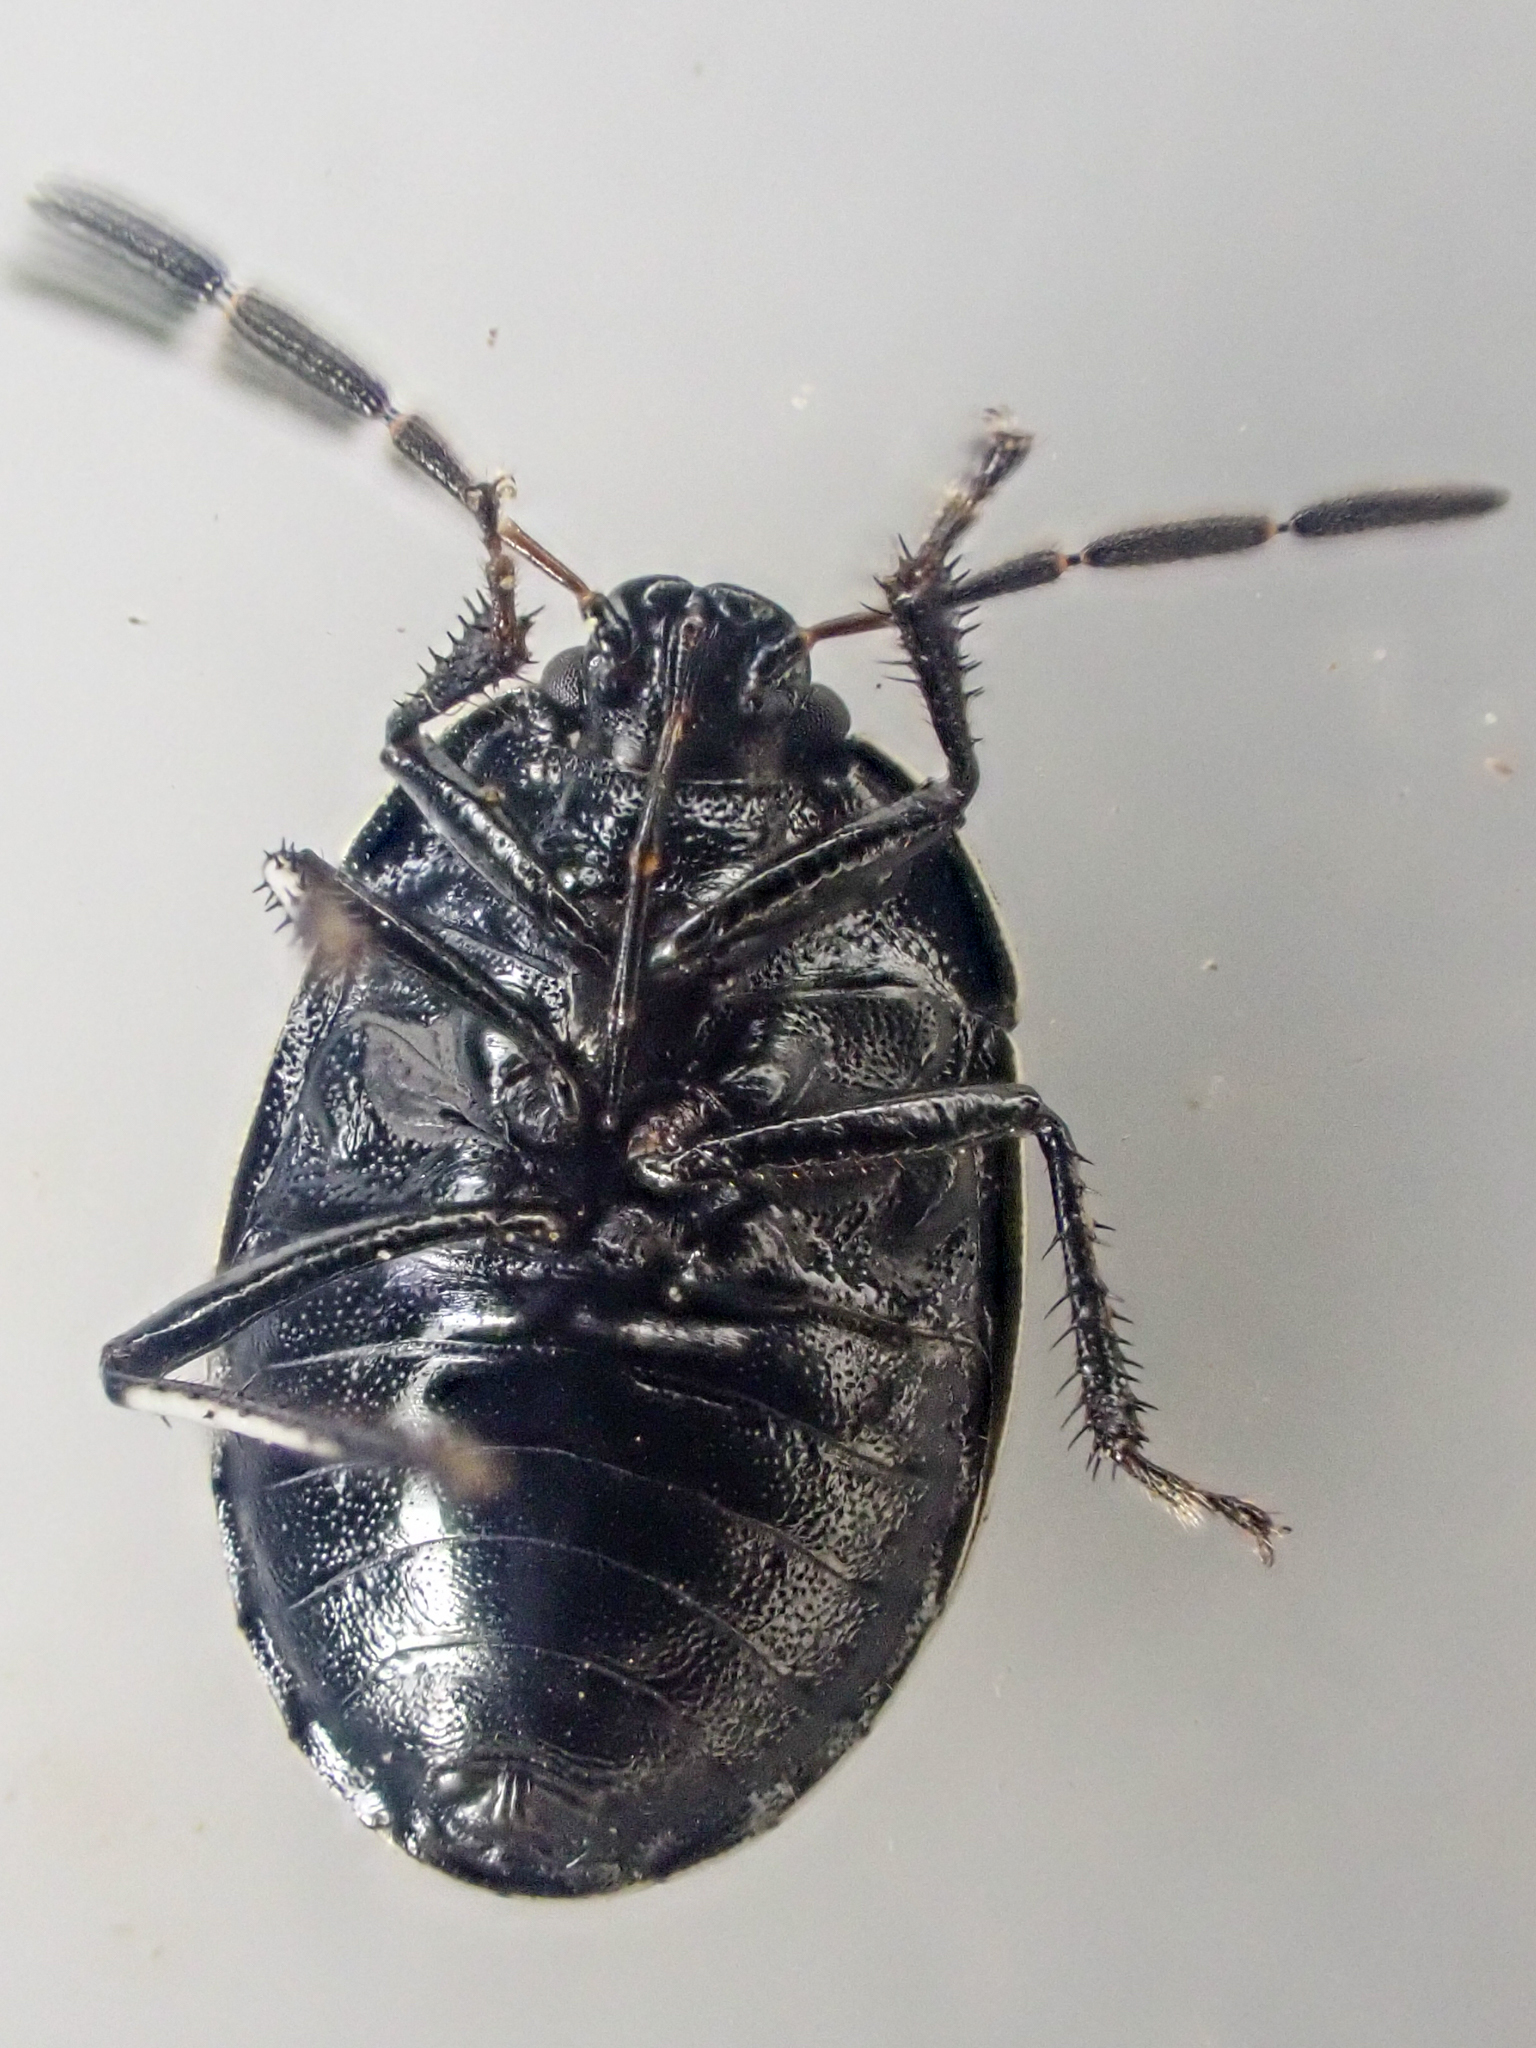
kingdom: Animalia
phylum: Arthropoda
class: Insecta
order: Hemiptera
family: Cydnidae
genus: Sehirus
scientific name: Sehirus cinctus
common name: White-margined burrower bug
